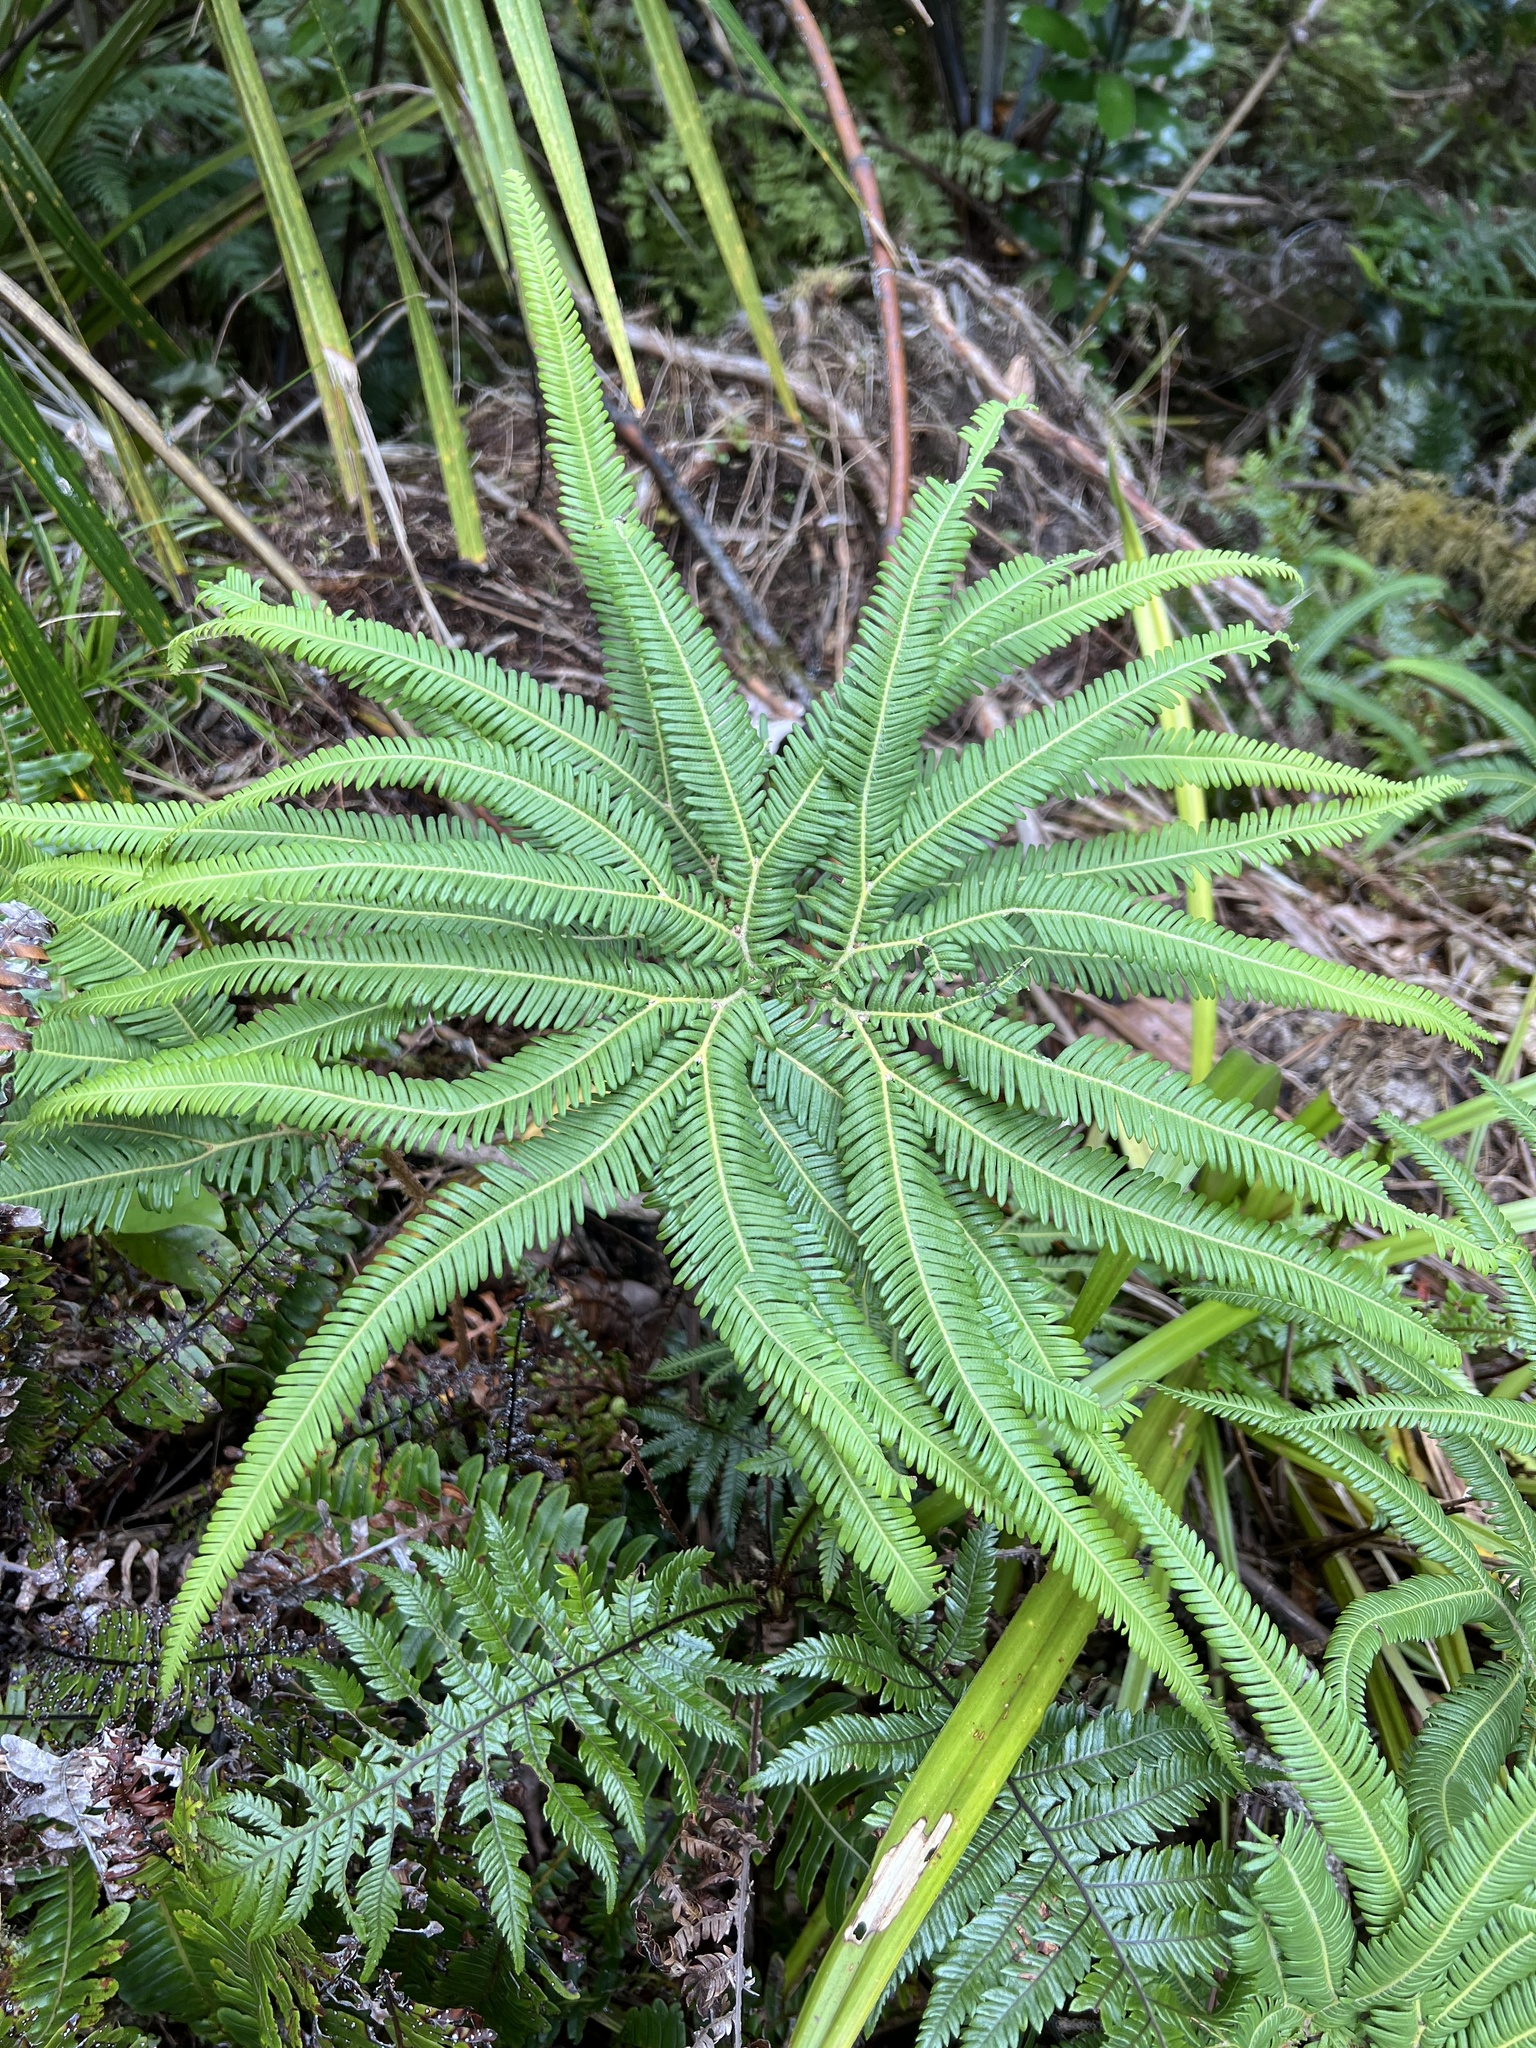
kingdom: Plantae
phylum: Tracheophyta
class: Polypodiopsida
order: Gleicheniales
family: Gleicheniaceae
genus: Sticherus
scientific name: Sticherus cunninghamii
